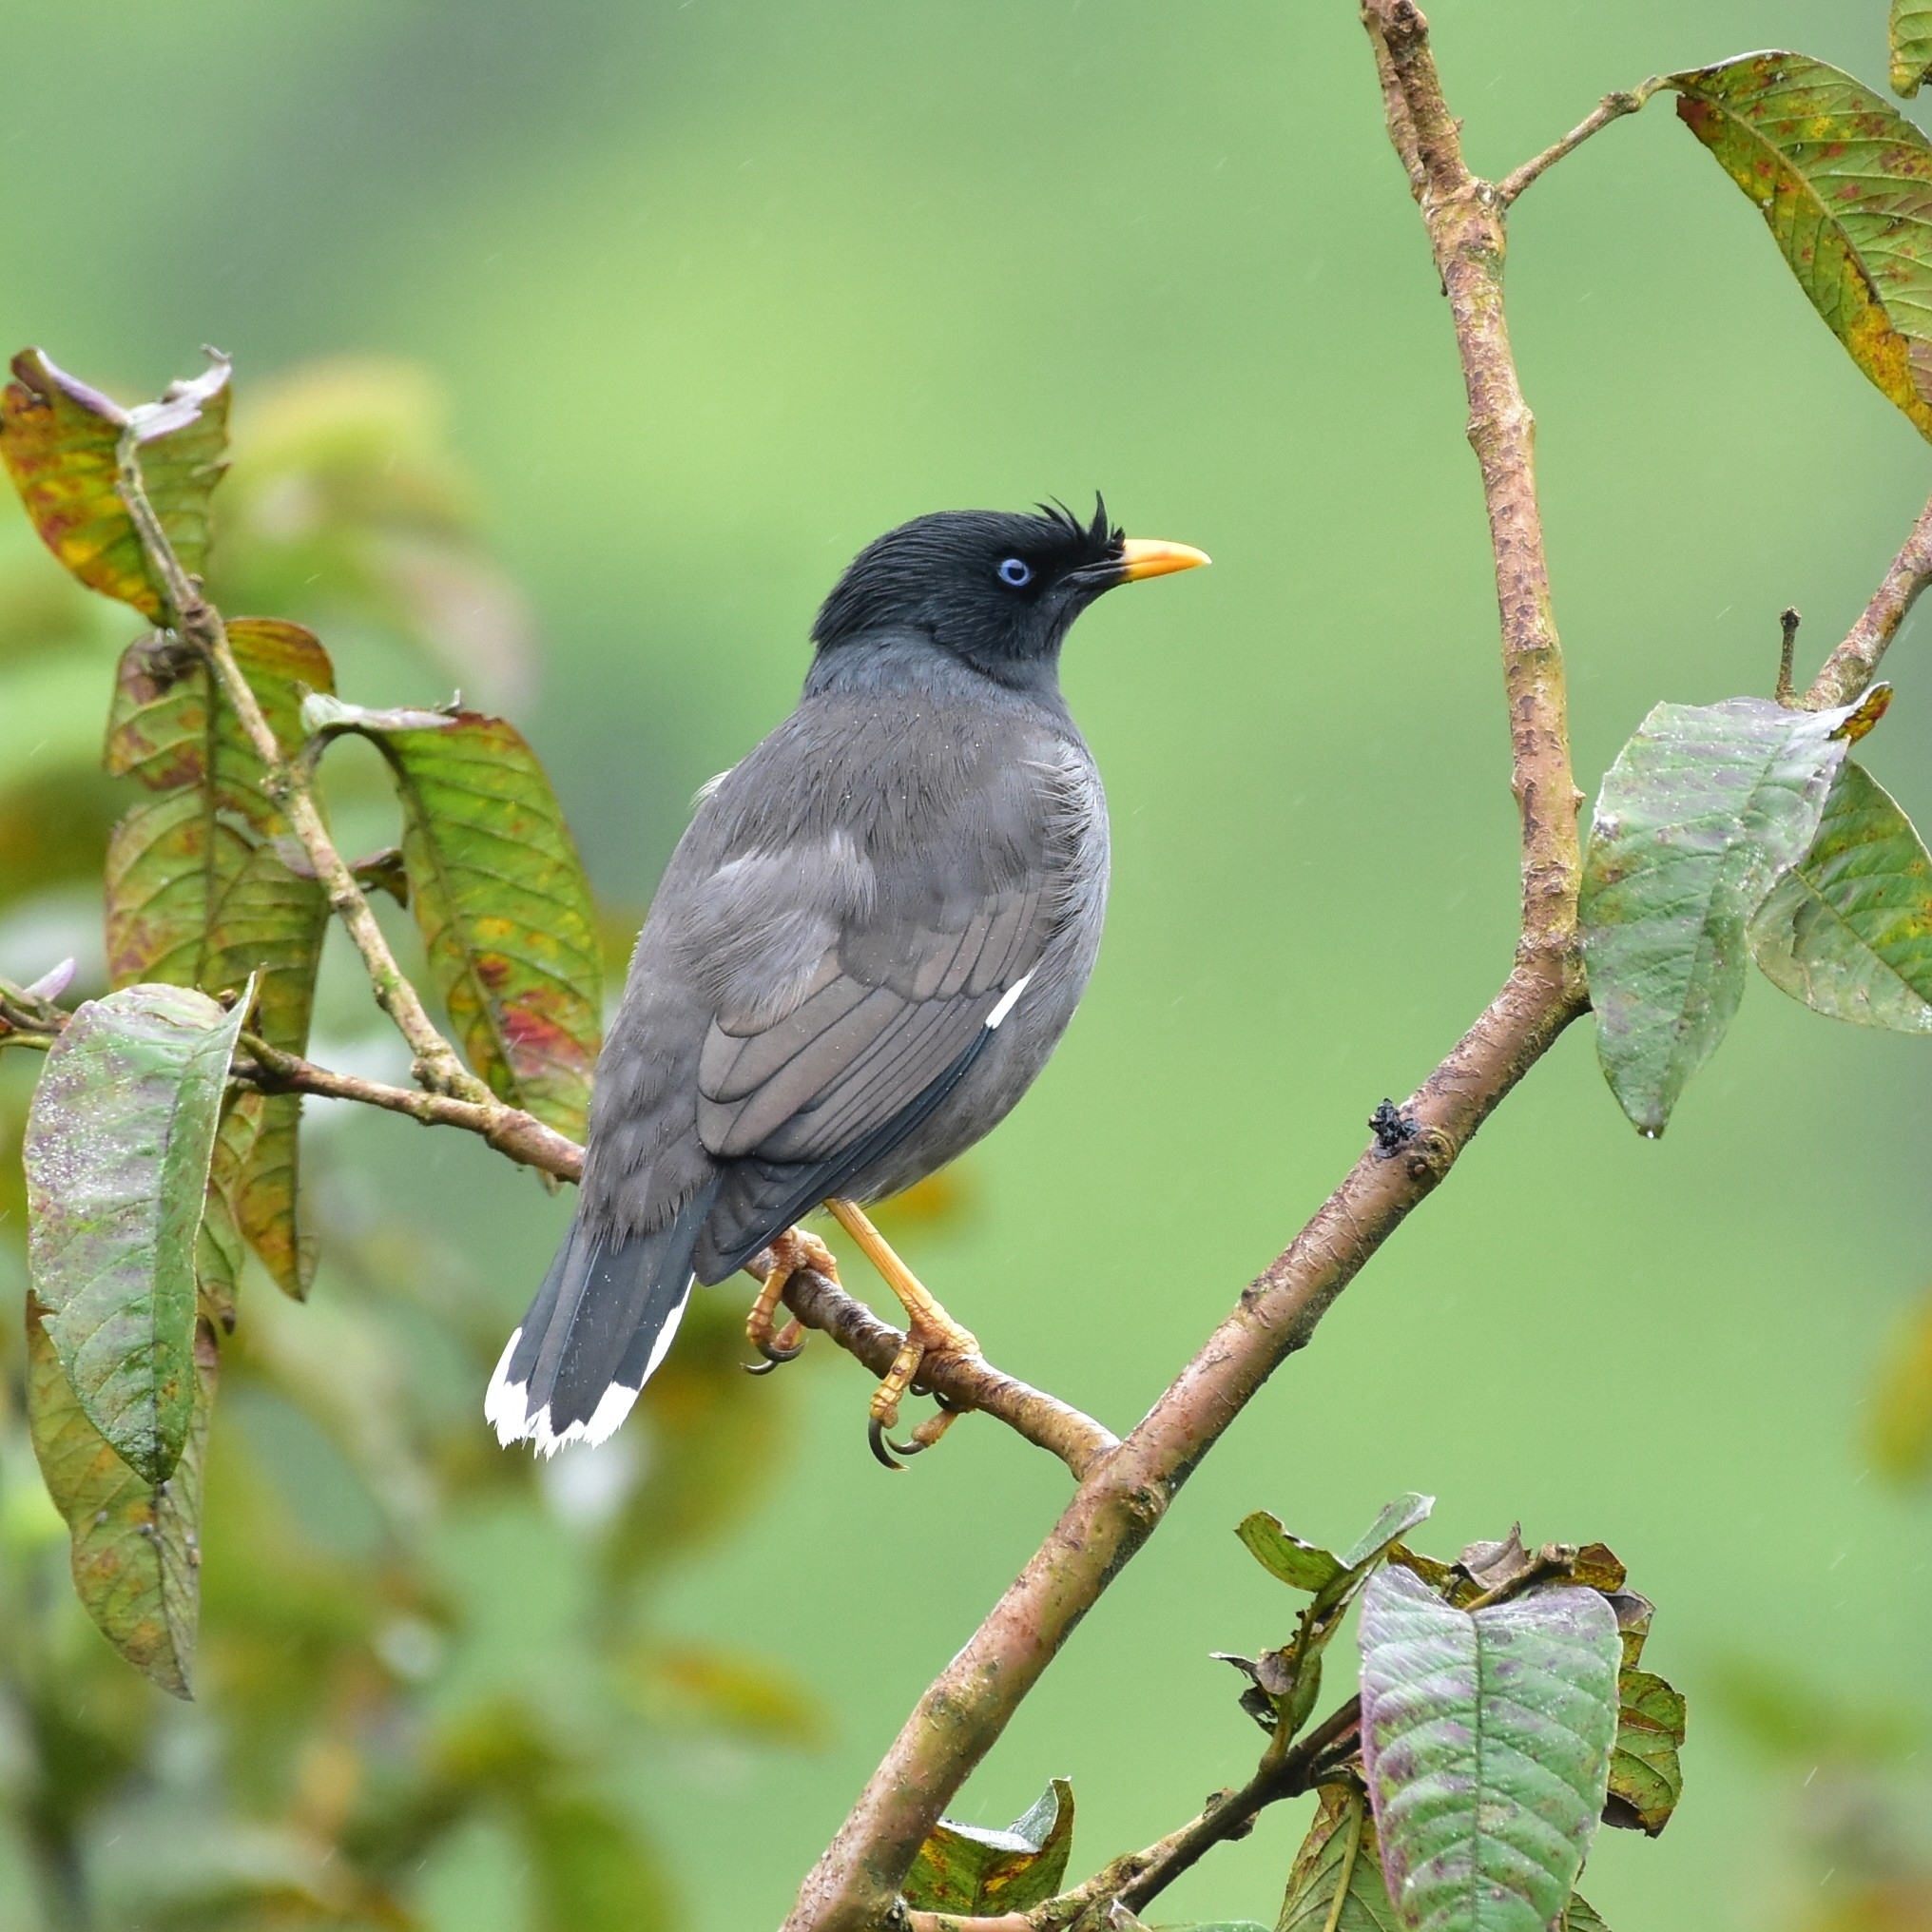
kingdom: Animalia
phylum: Chordata
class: Aves
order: Passeriformes
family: Sturnidae
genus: Acridotheres
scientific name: Acridotheres fuscus
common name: Jungle myna
